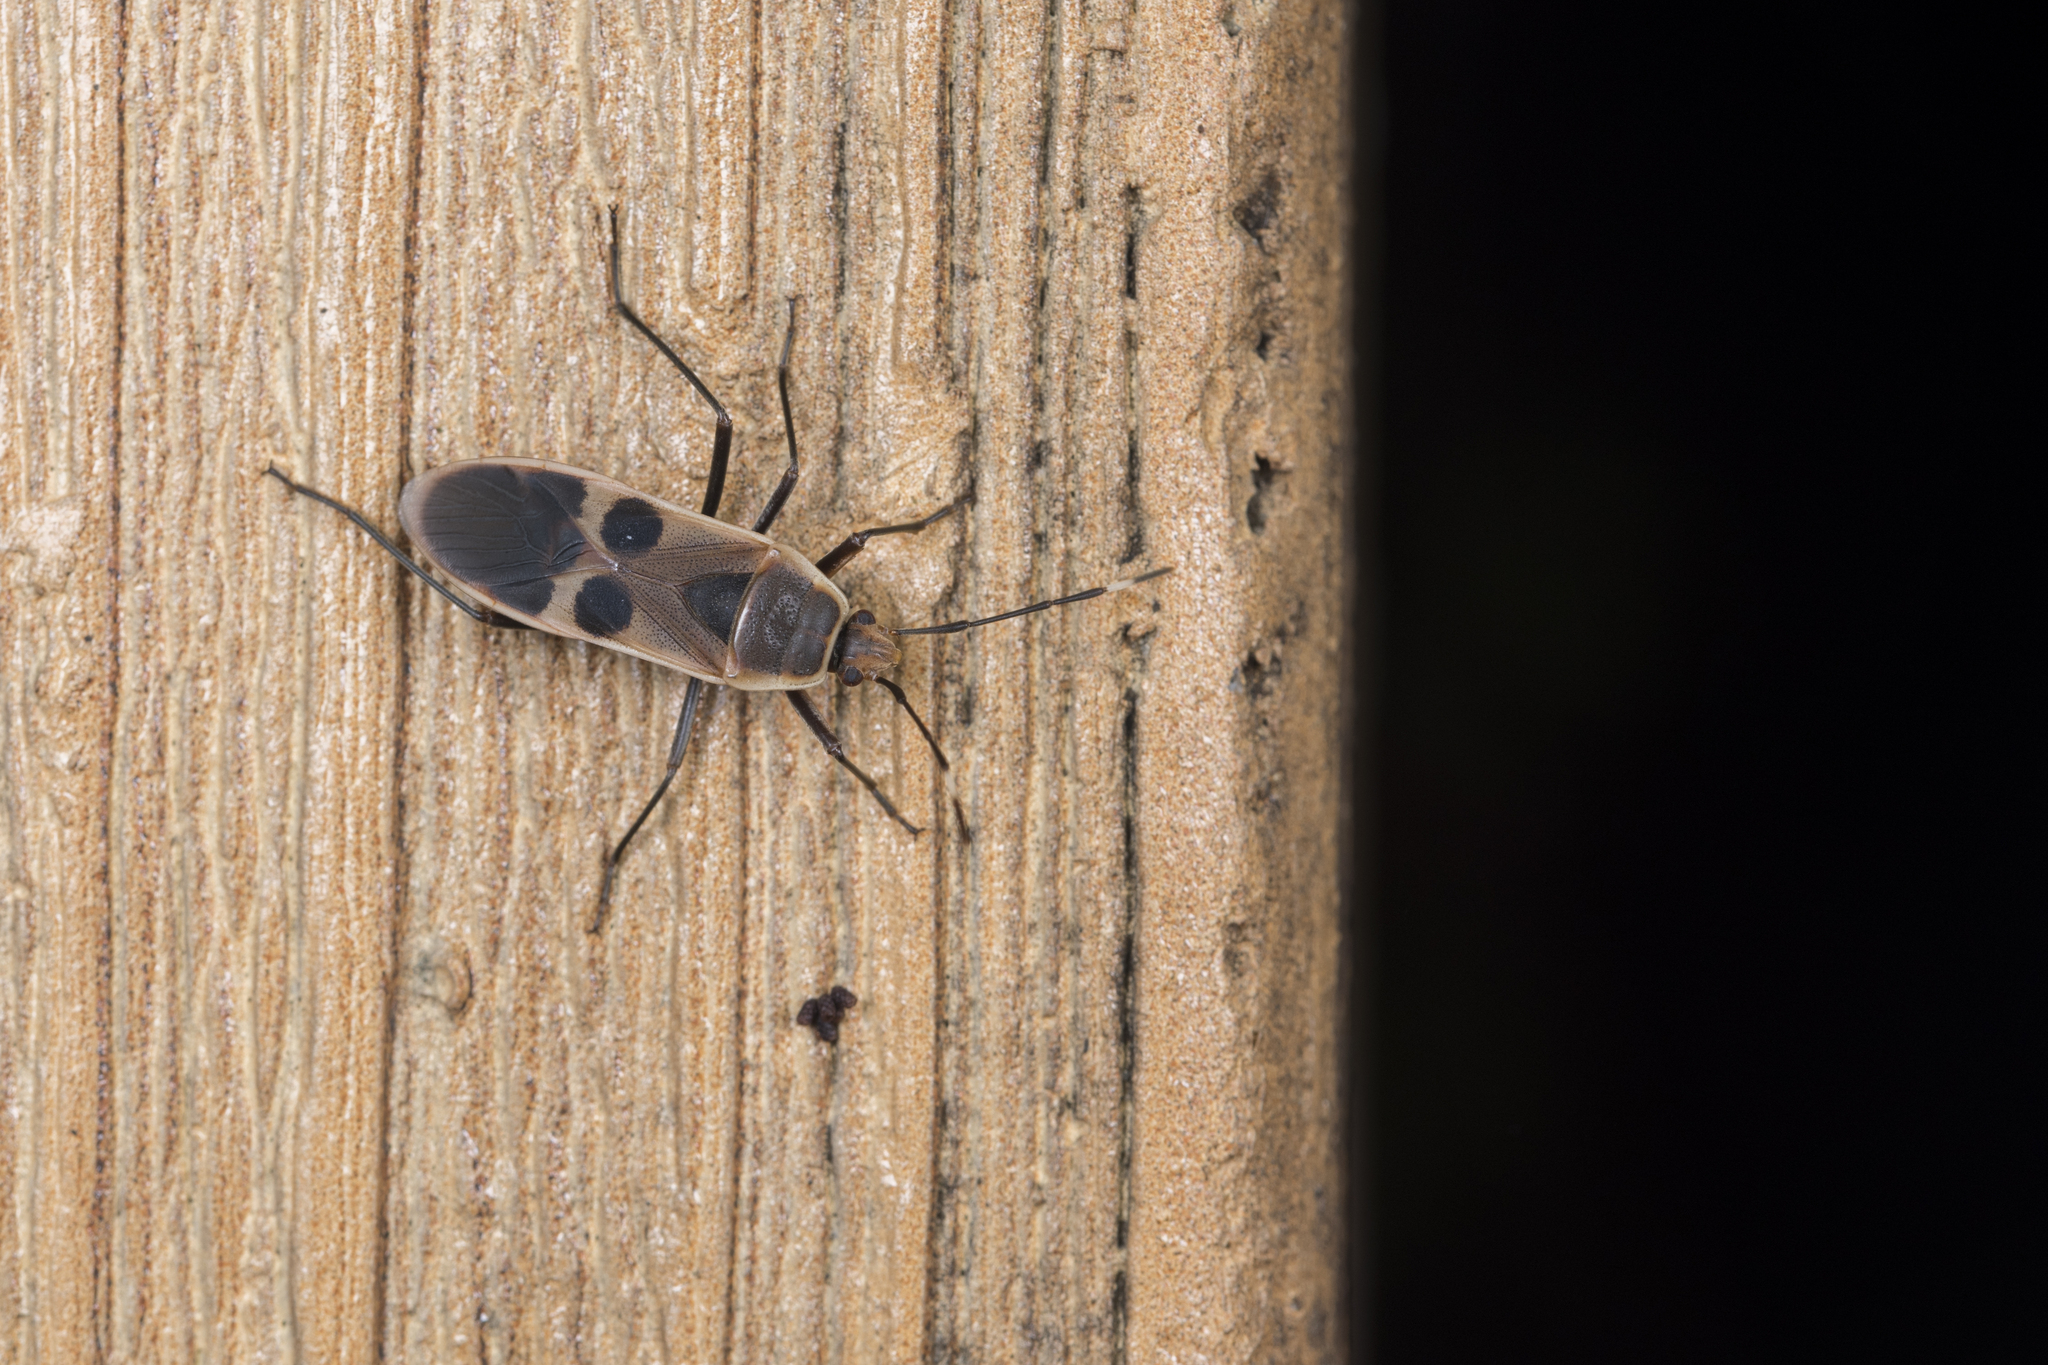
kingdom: Animalia
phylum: Arthropoda
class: Insecta
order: Hemiptera
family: Largidae
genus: Physopelta
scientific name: Physopelta gutta
